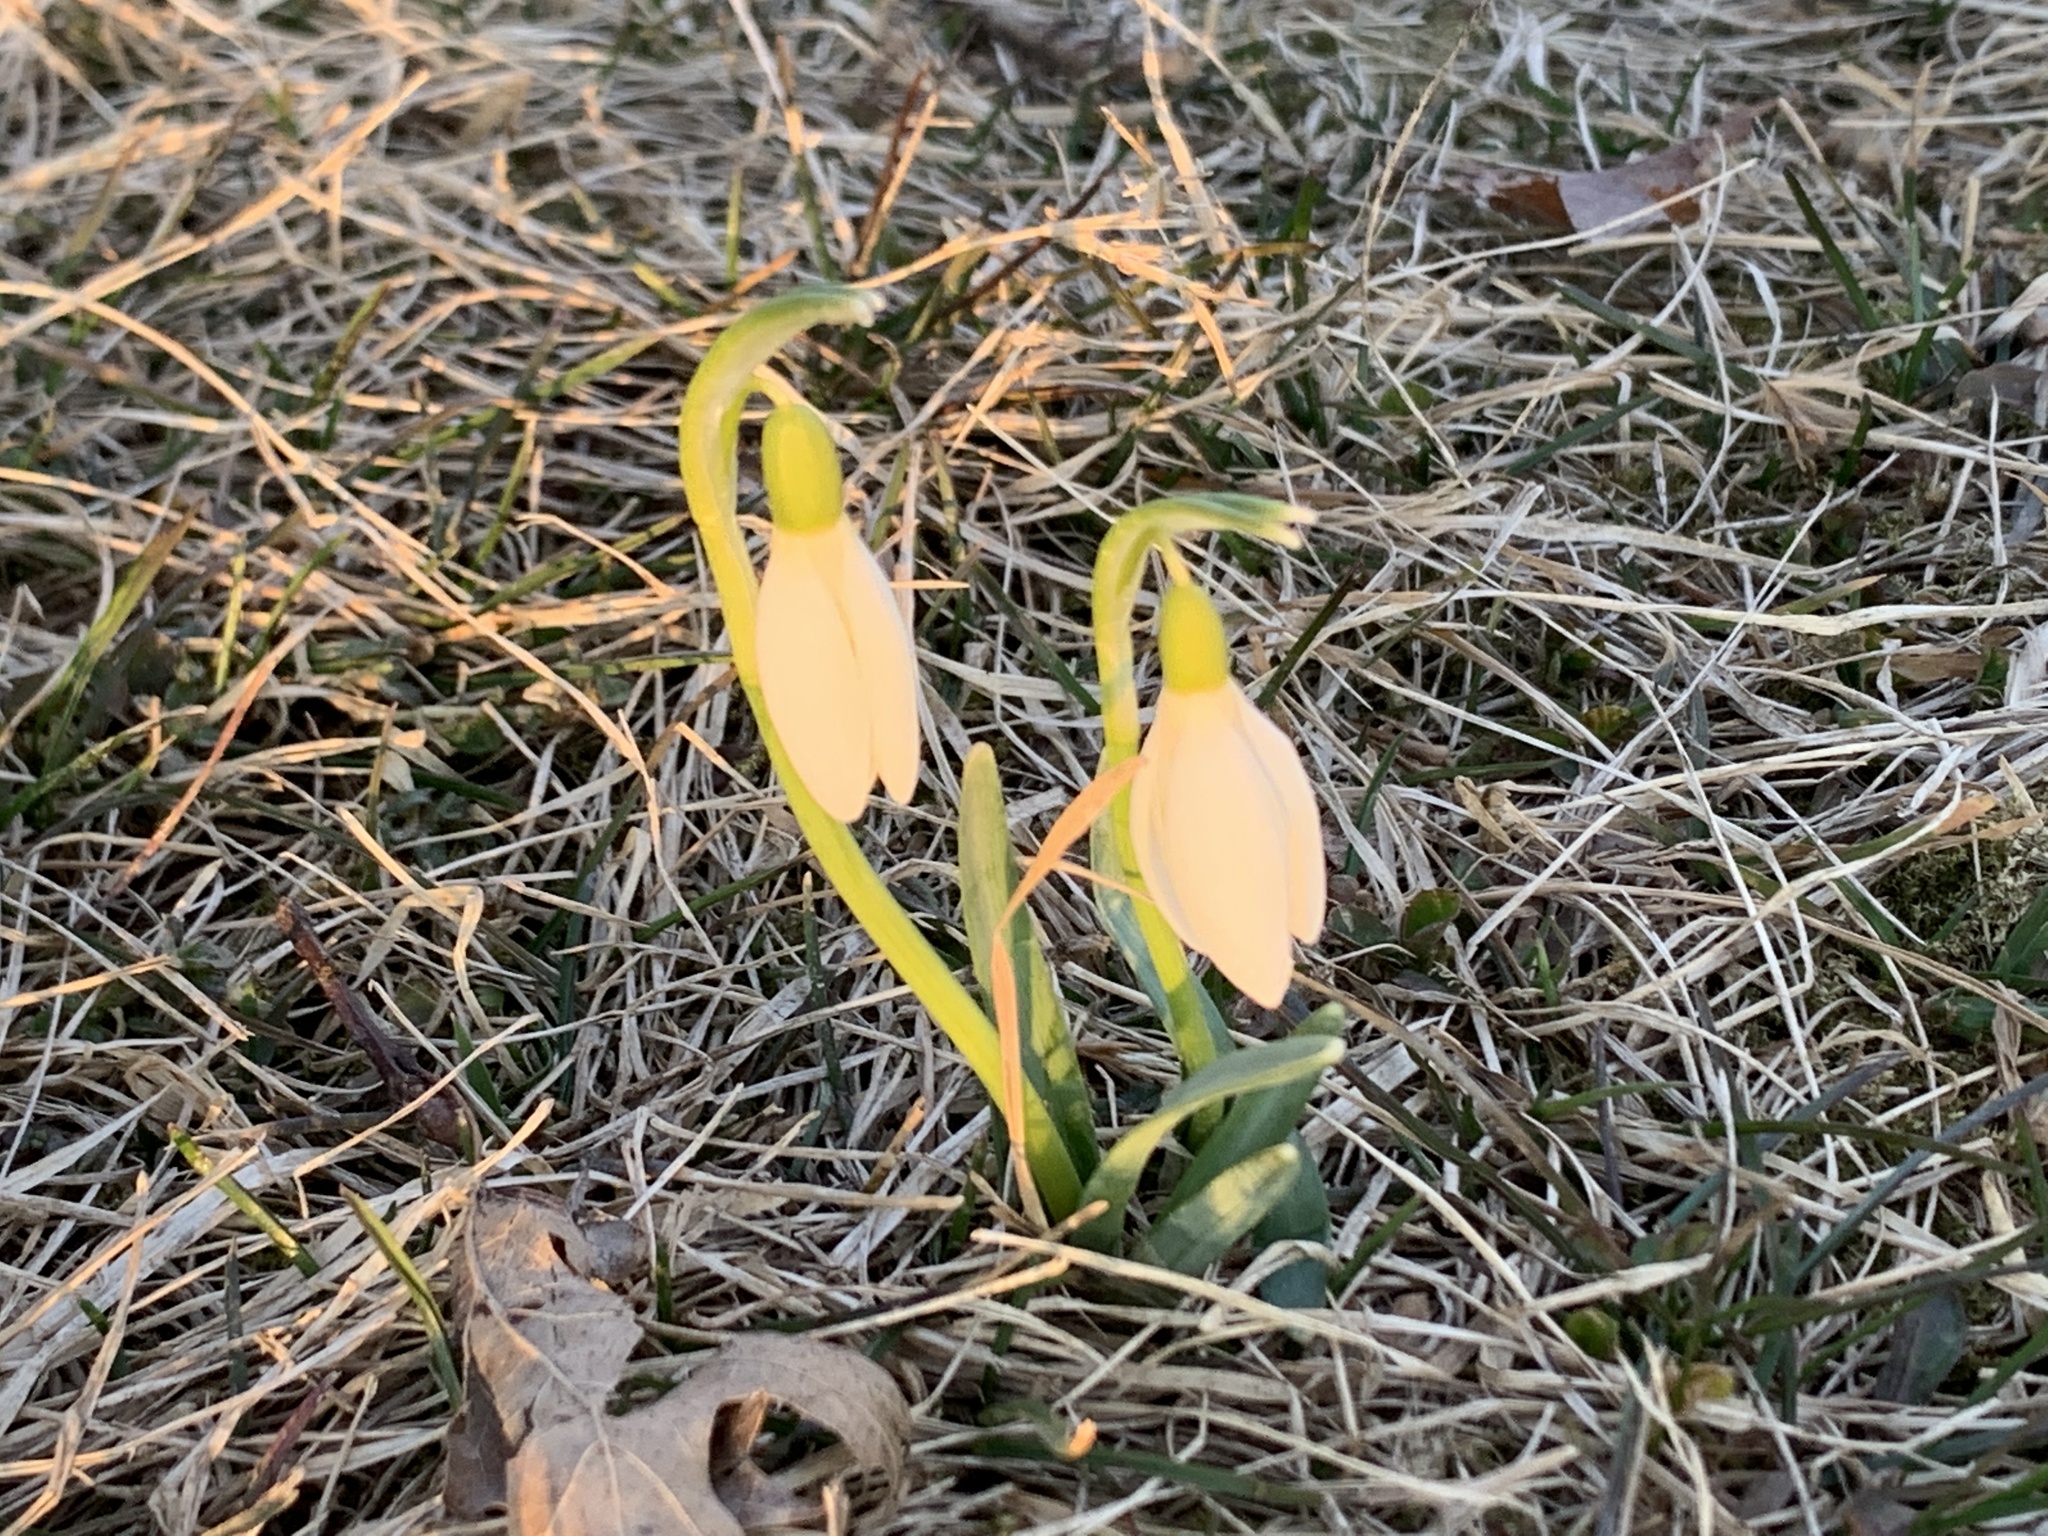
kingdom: Plantae
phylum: Tracheophyta
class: Liliopsida
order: Asparagales
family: Amaryllidaceae
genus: Galanthus
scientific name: Galanthus nivalis
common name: Snowdrop
